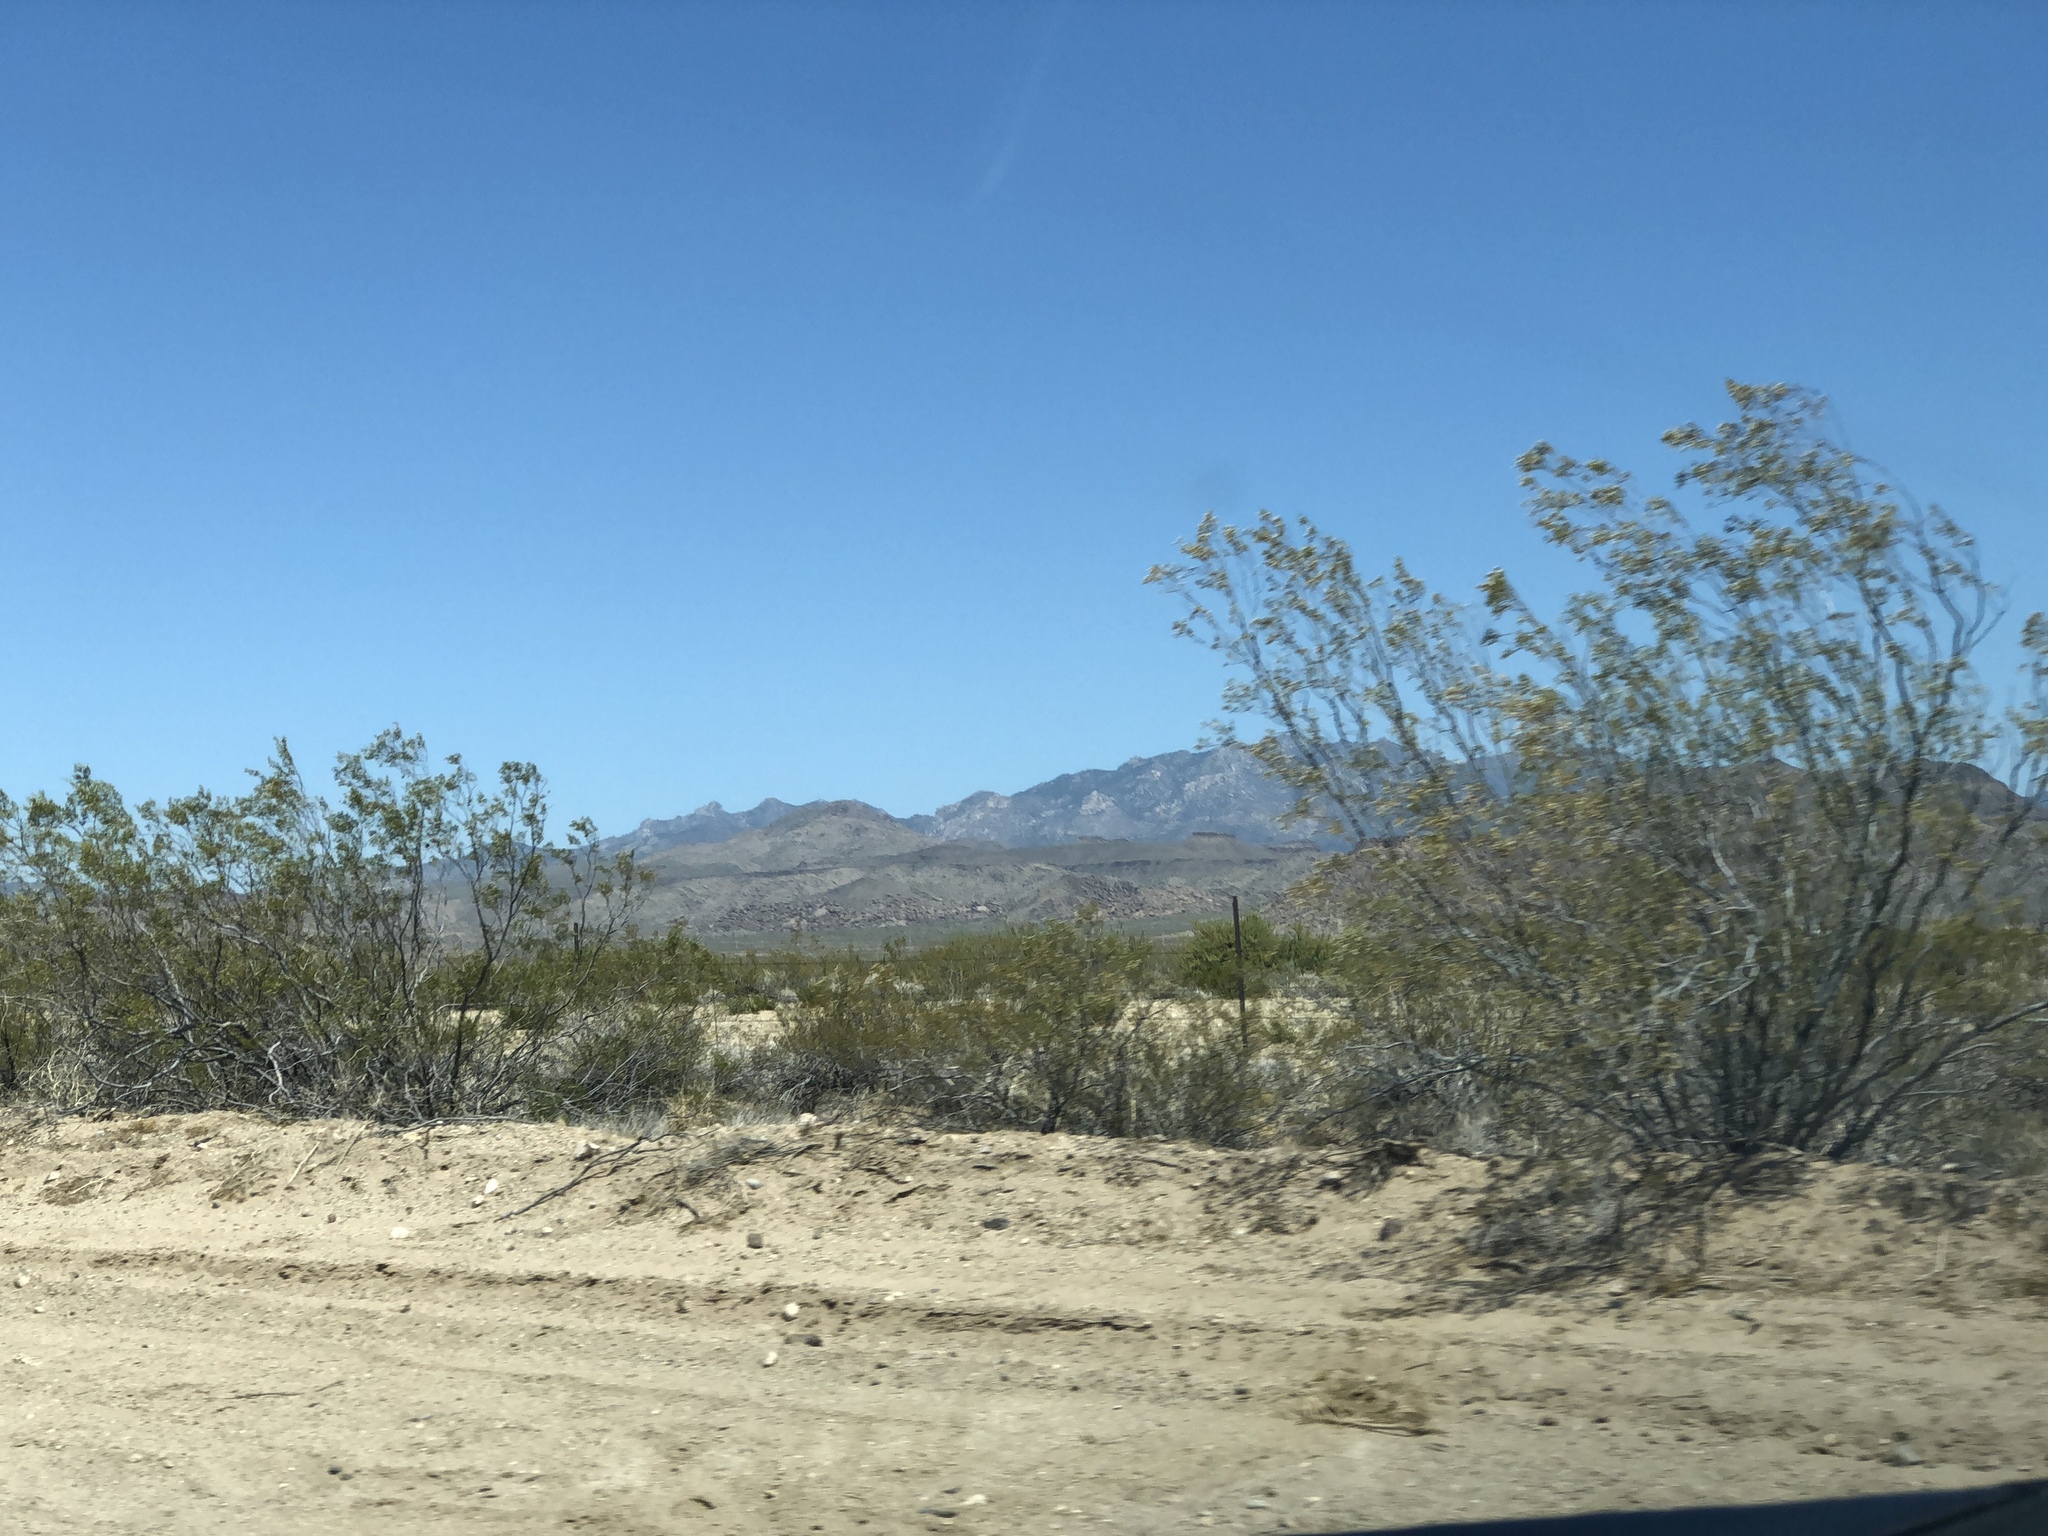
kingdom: Plantae
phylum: Tracheophyta
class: Magnoliopsida
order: Zygophyllales
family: Zygophyllaceae
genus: Larrea
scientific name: Larrea tridentata
